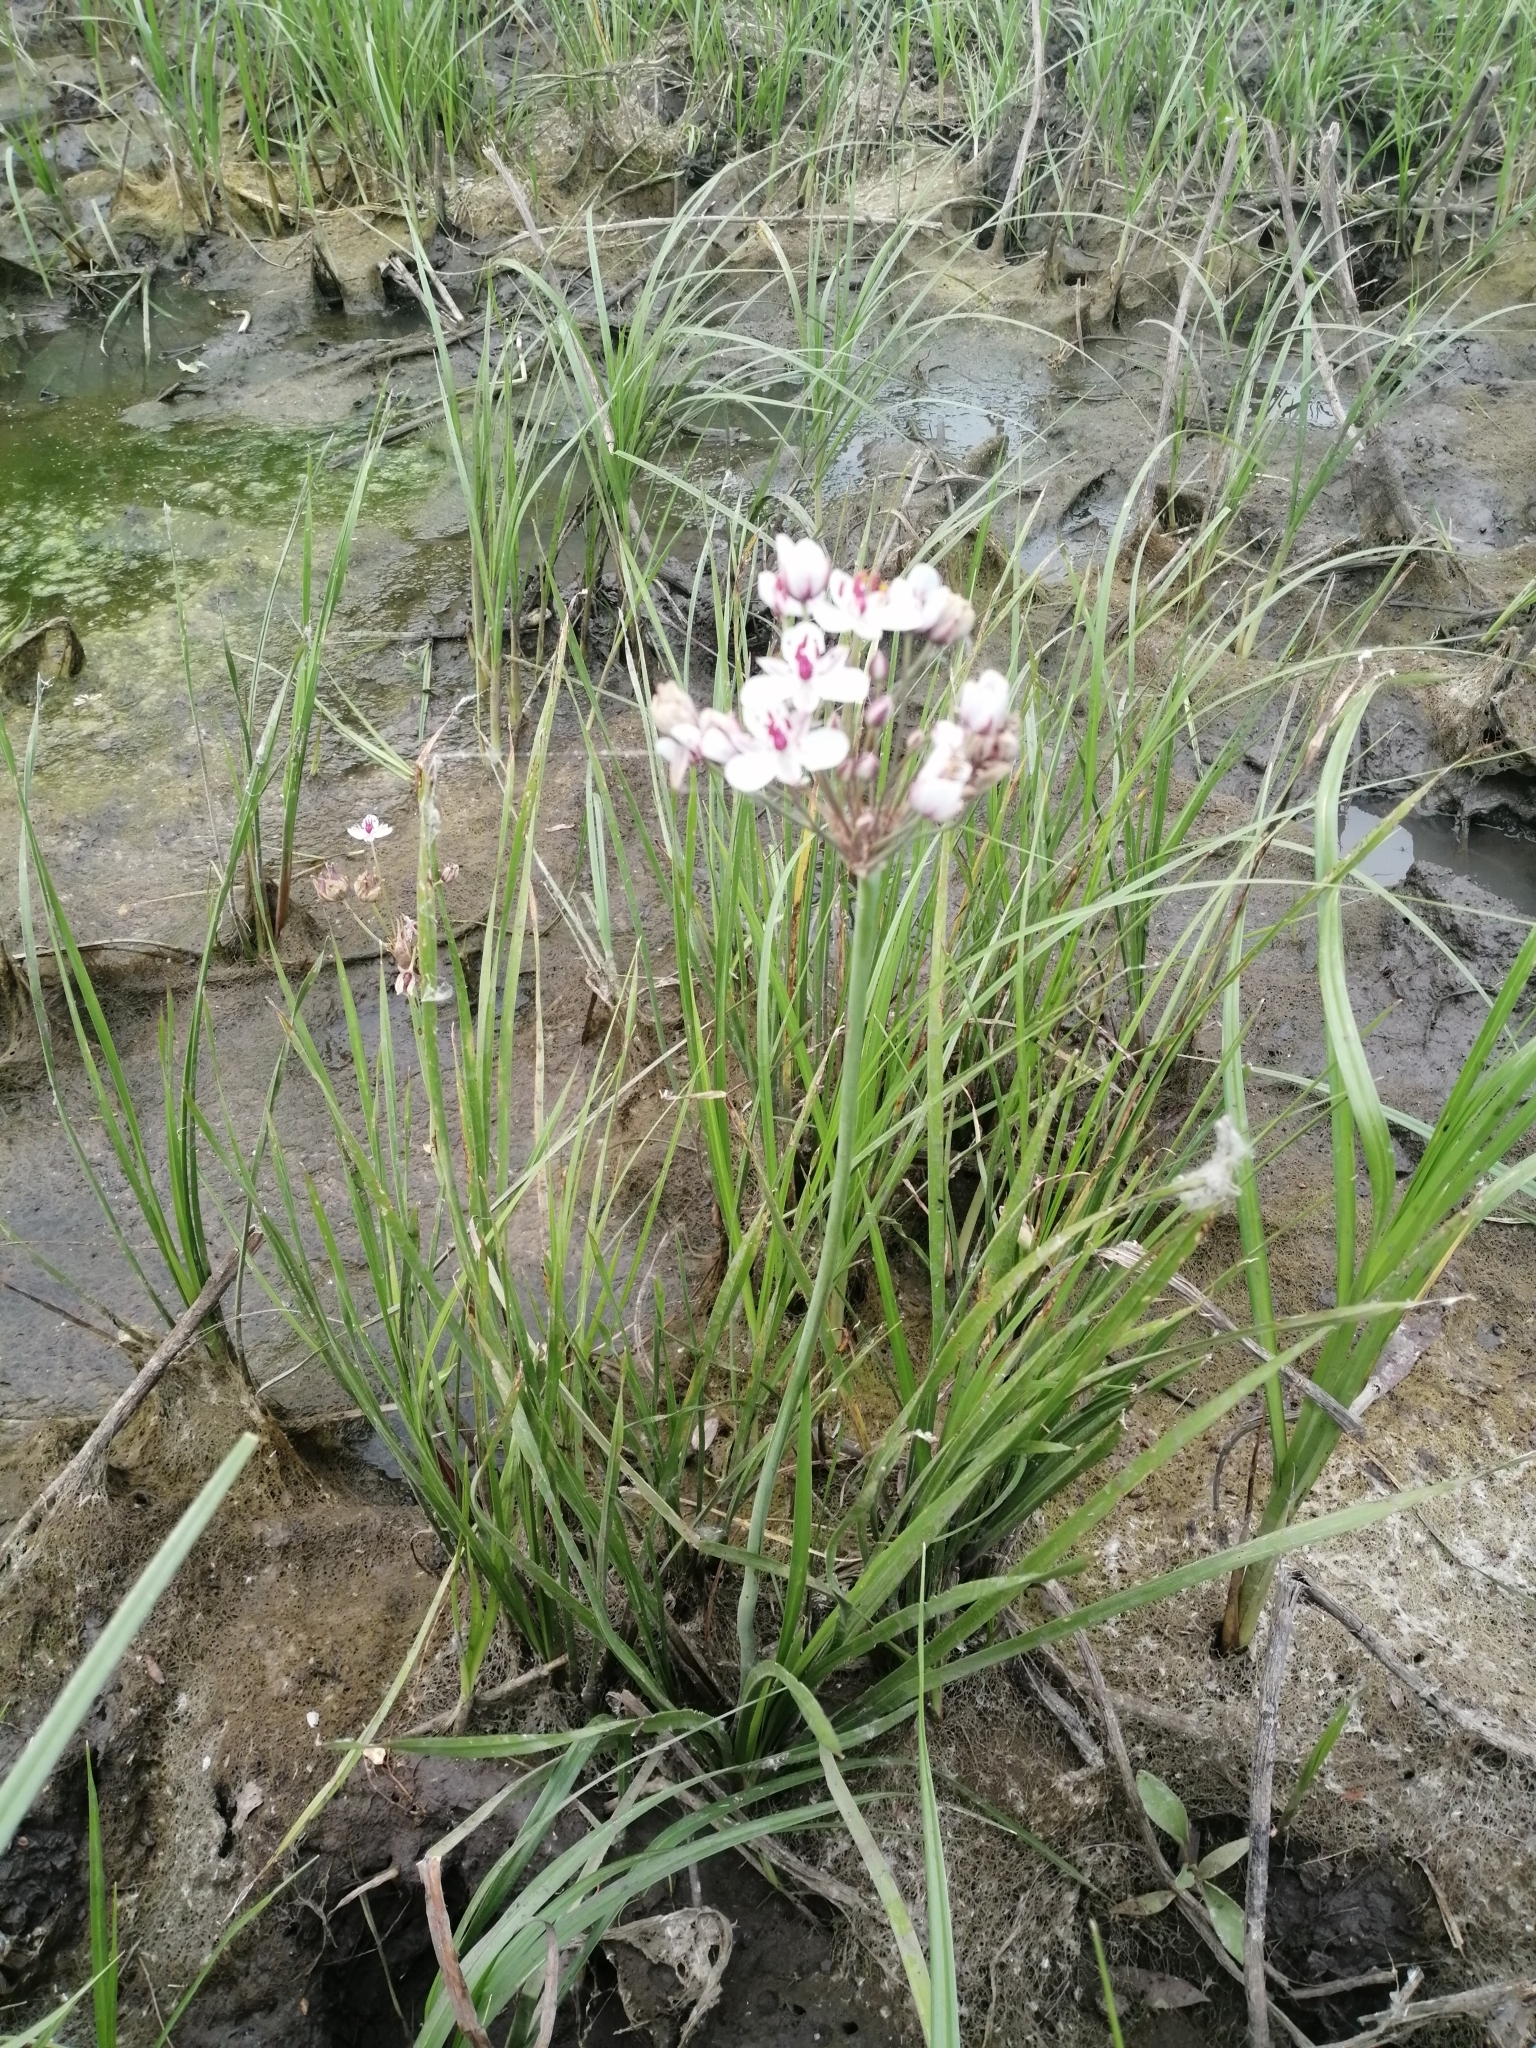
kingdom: Plantae
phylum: Tracheophyta
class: Liliopsida
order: Alismatales
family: Butomaceae
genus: Butomus
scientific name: Butomus umbellatus
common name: Flowering-rush
